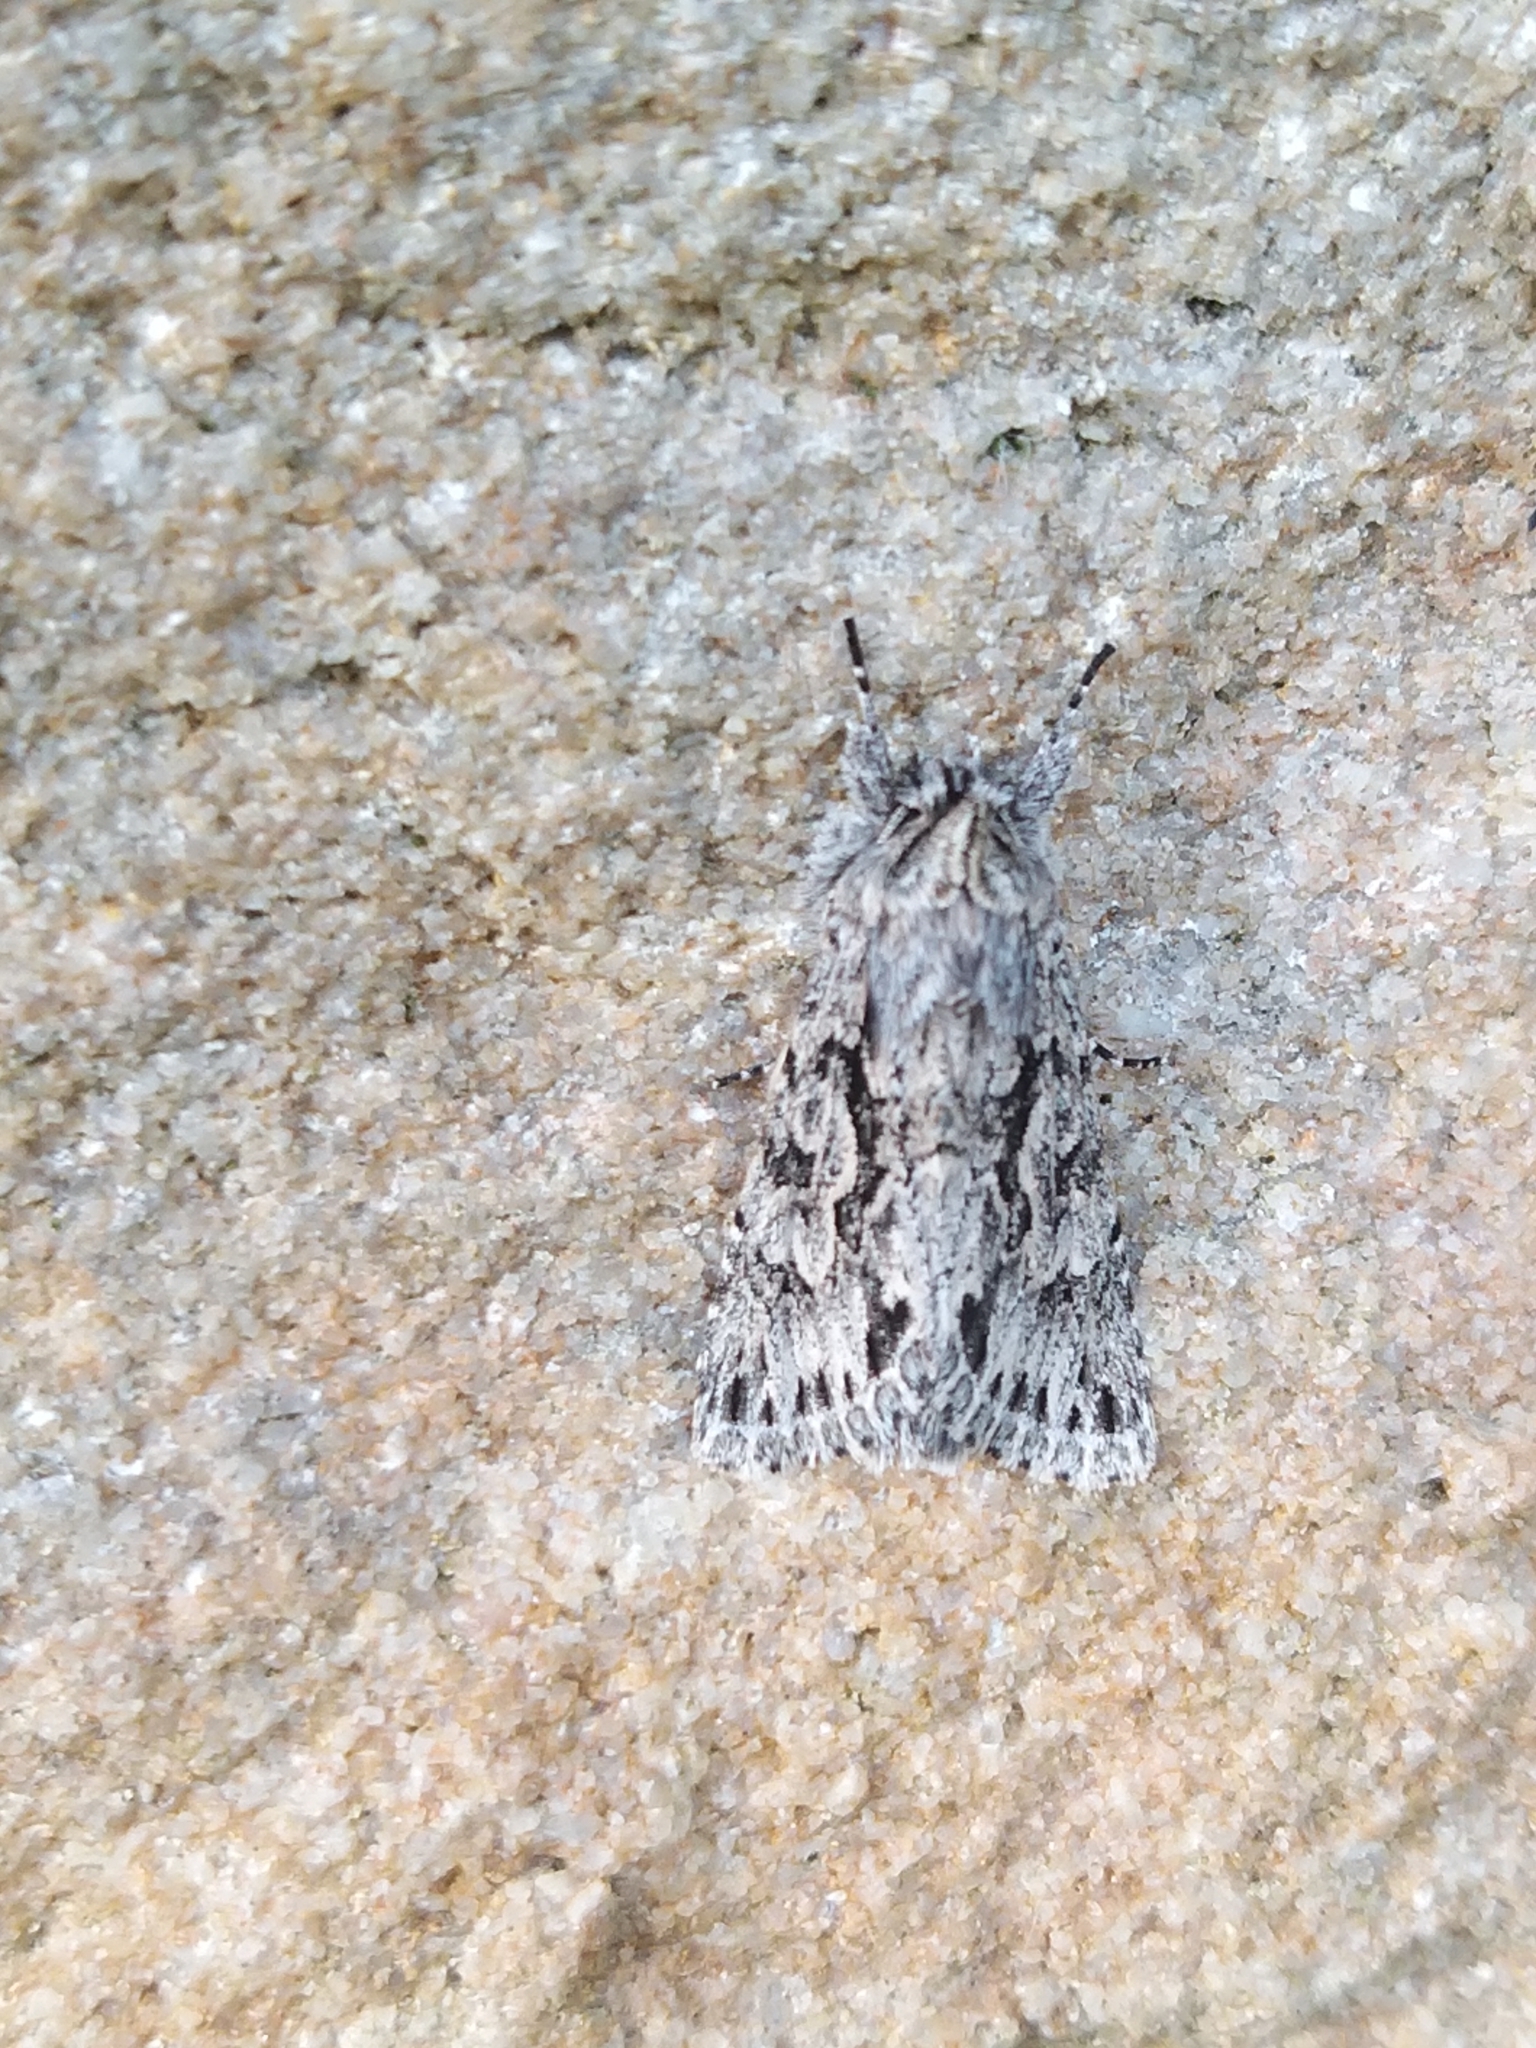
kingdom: Animalia
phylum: Arthropoda
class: Insecta
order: Lepidoptera
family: Noctuidae
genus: Xylocampa
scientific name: Xylocampa areola
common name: Early grey
